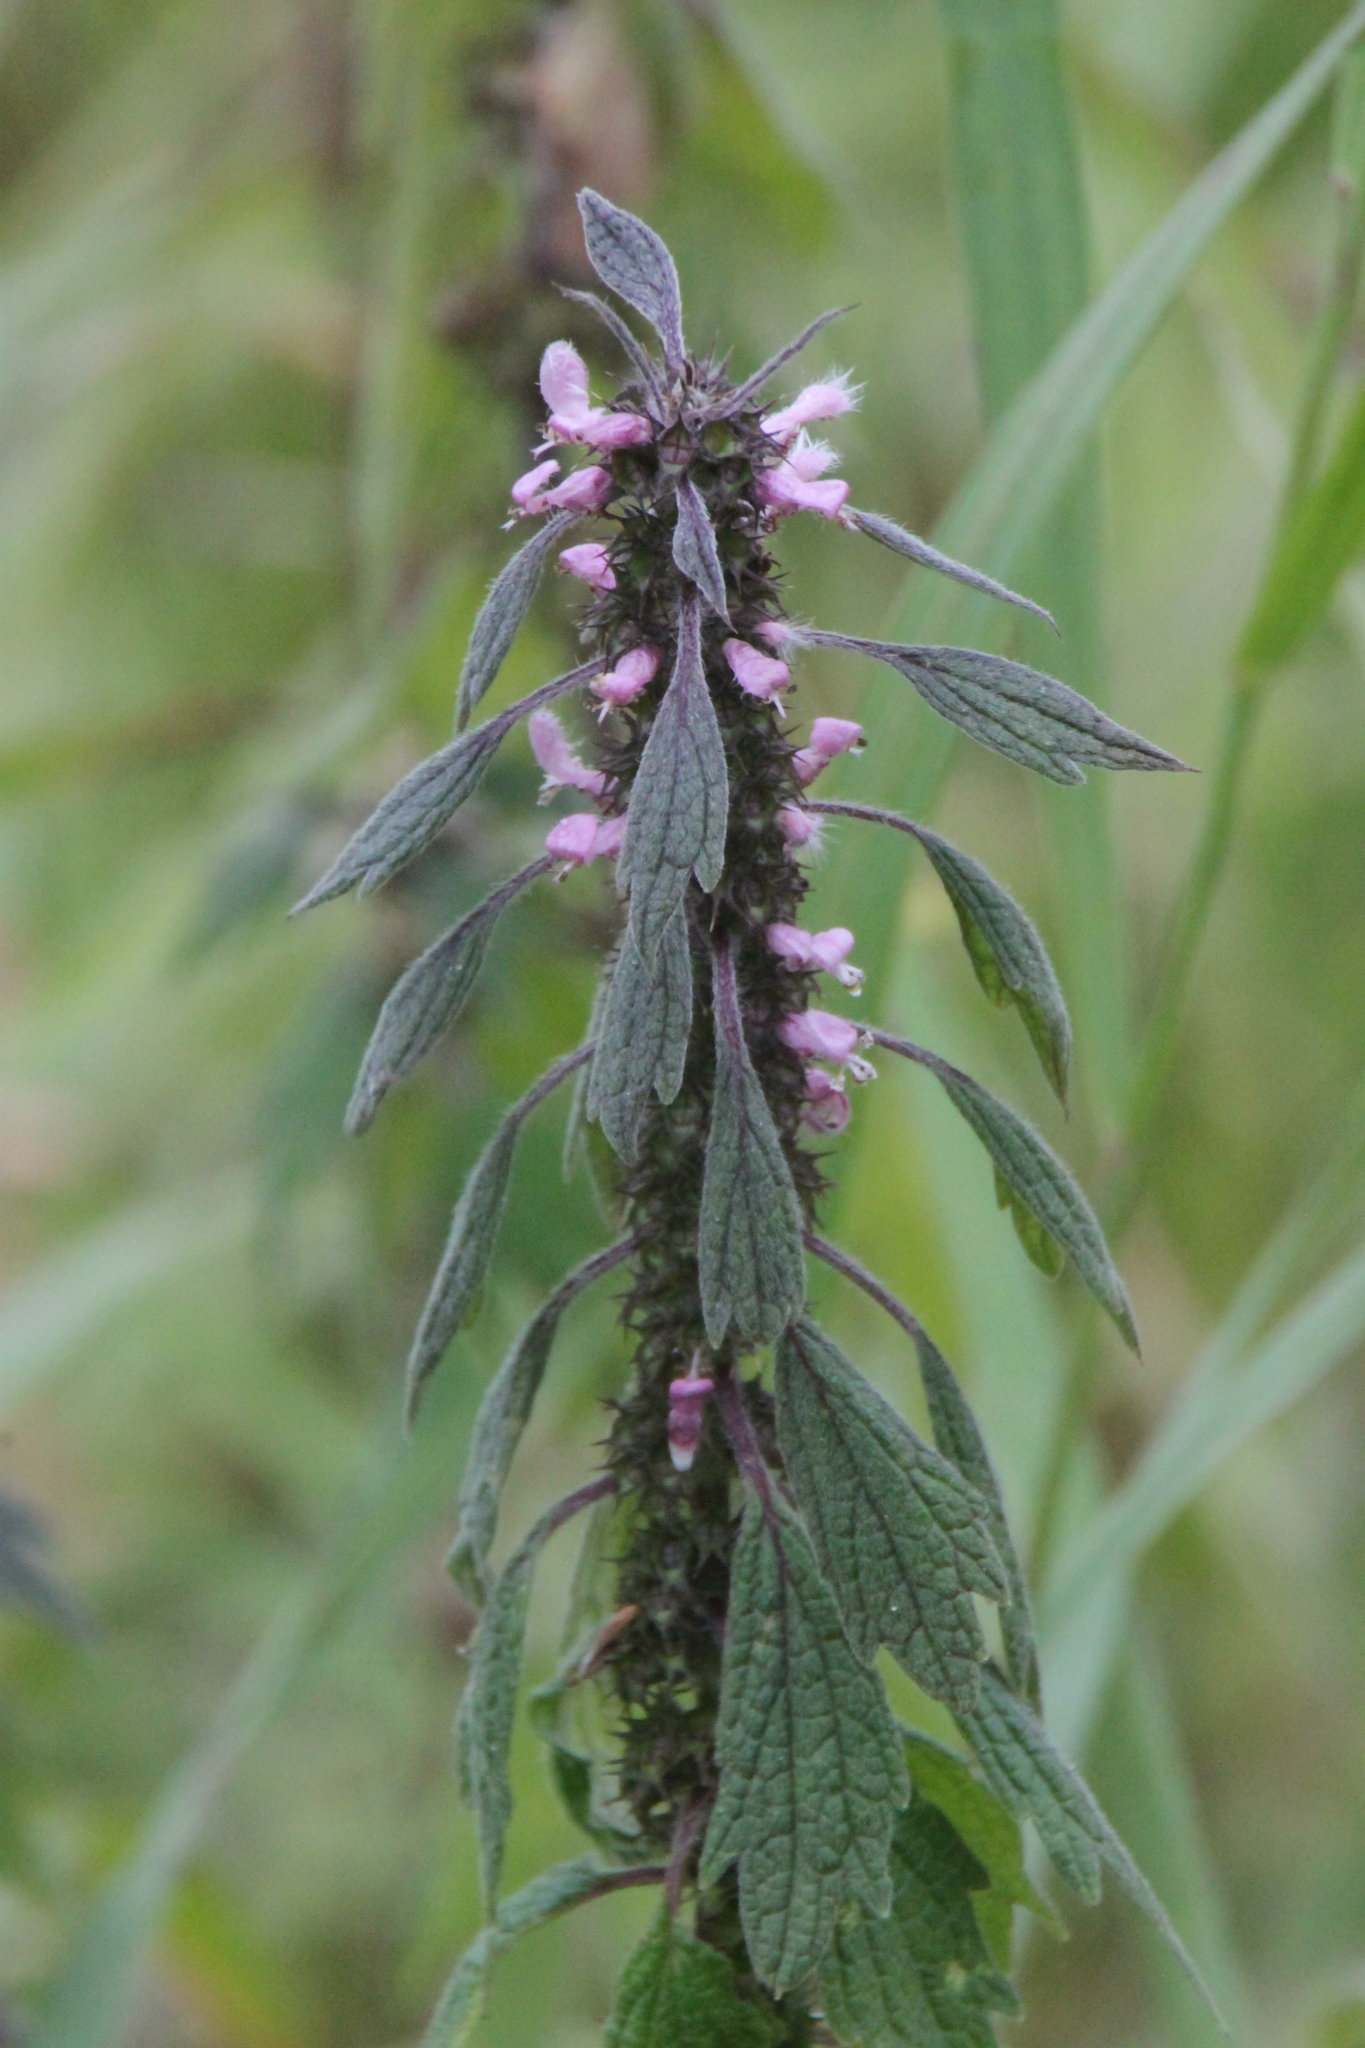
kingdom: Plantae
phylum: Tracheophyta
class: Magnoliopsida
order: Lamiales
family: Lamiaceae
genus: Leonurus
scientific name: Leonurus quinquelobatus
